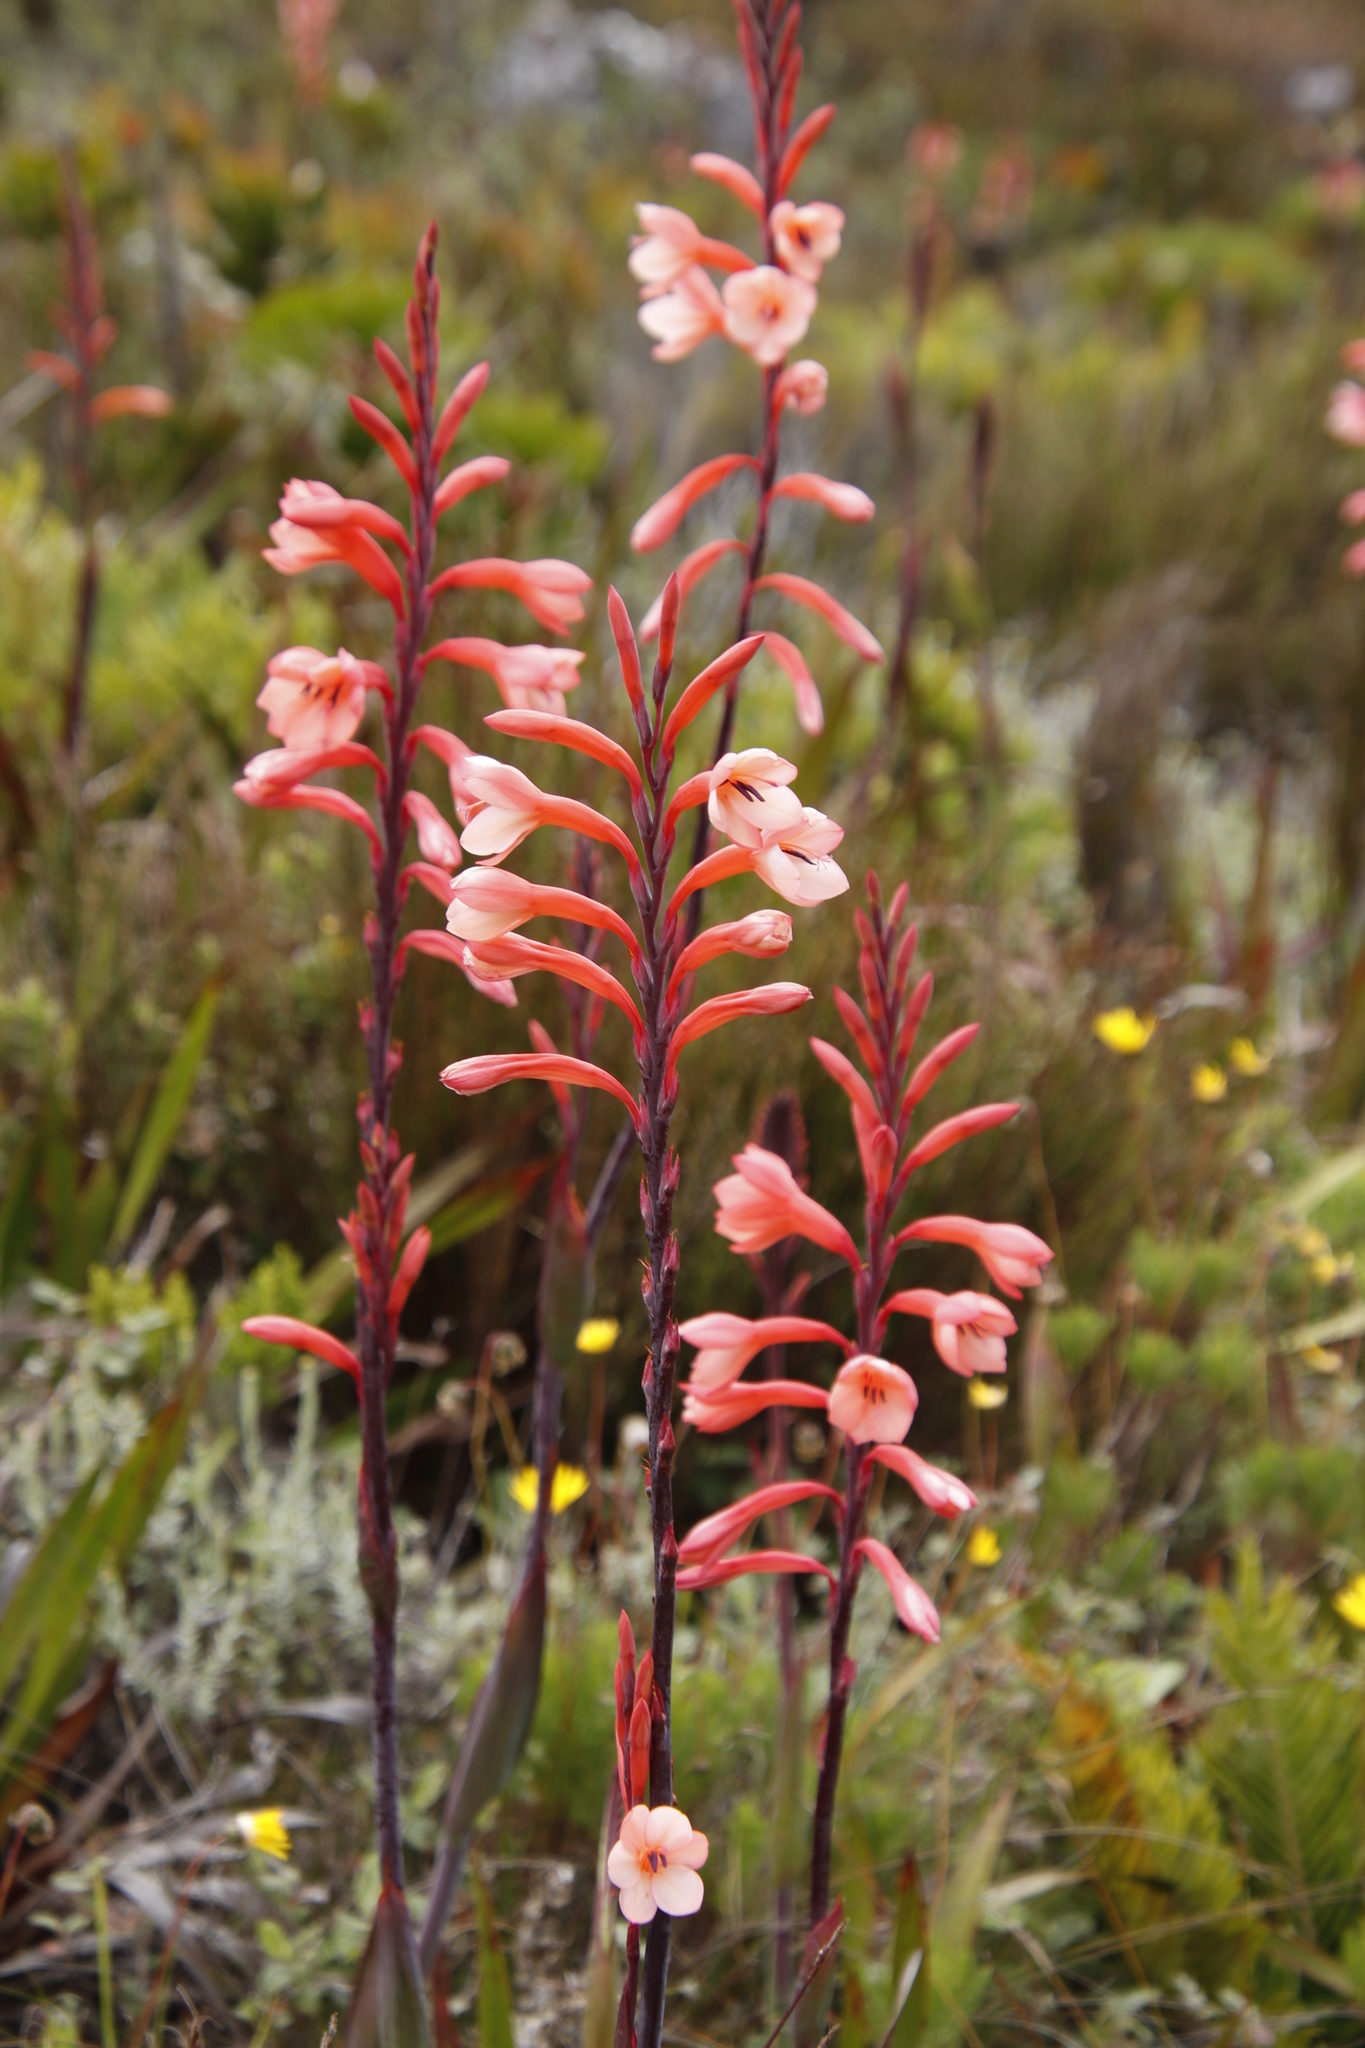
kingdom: Plantae
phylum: Tracheophyta
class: Liliopsida
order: Asparagales
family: Iridaceae
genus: Watsonia
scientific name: Watsonia tabularis
